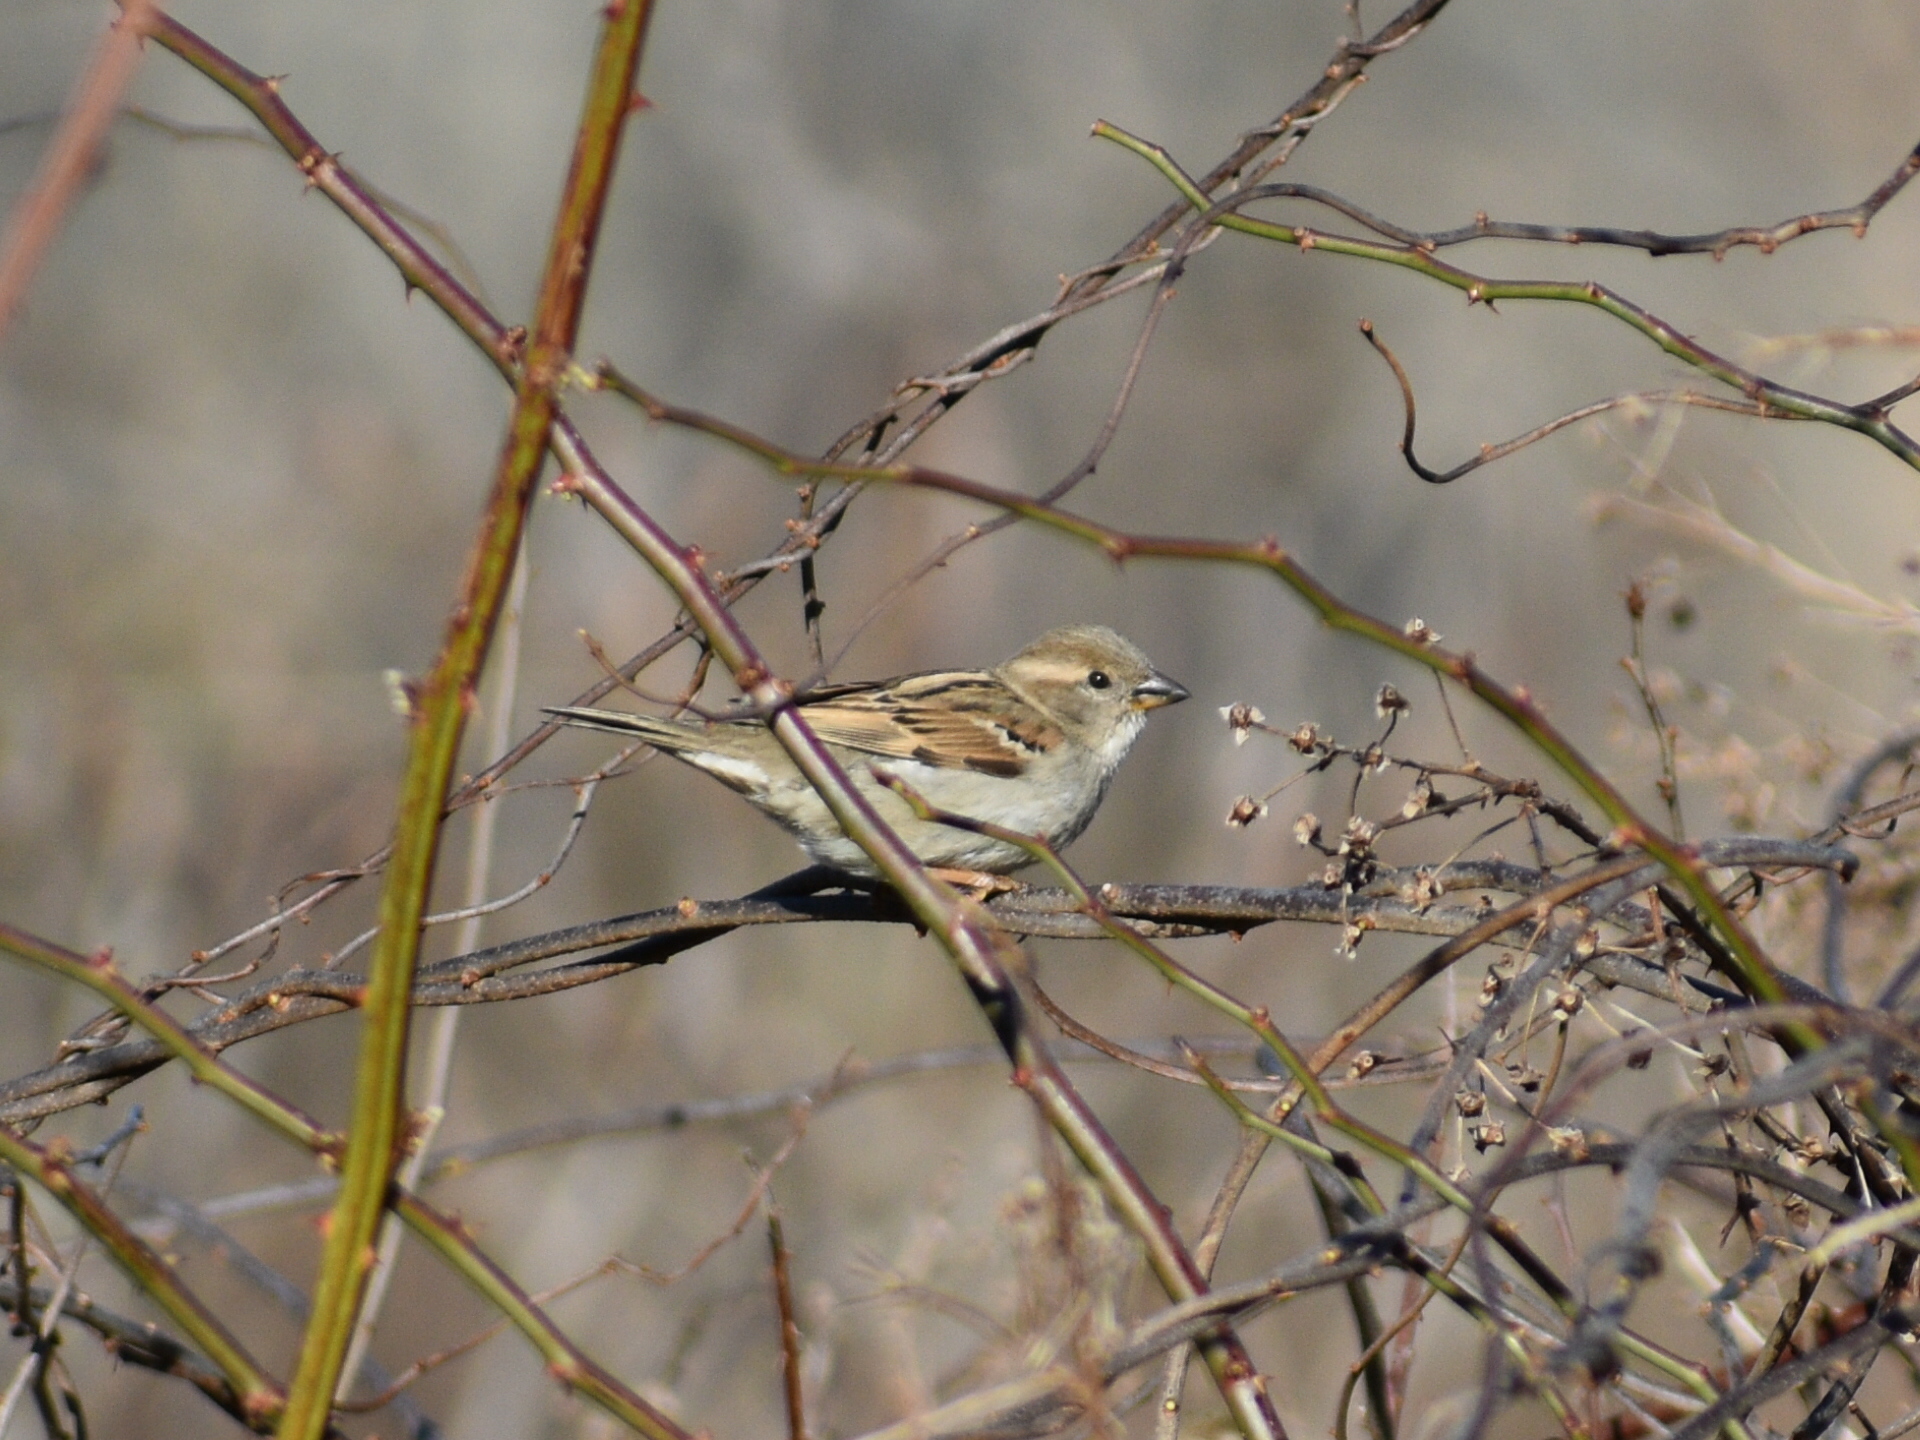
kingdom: Animalia
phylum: Chordata
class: Aves
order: Passeriformes
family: Passeridae
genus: Passer
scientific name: Passer domesticus
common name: House sparrow
